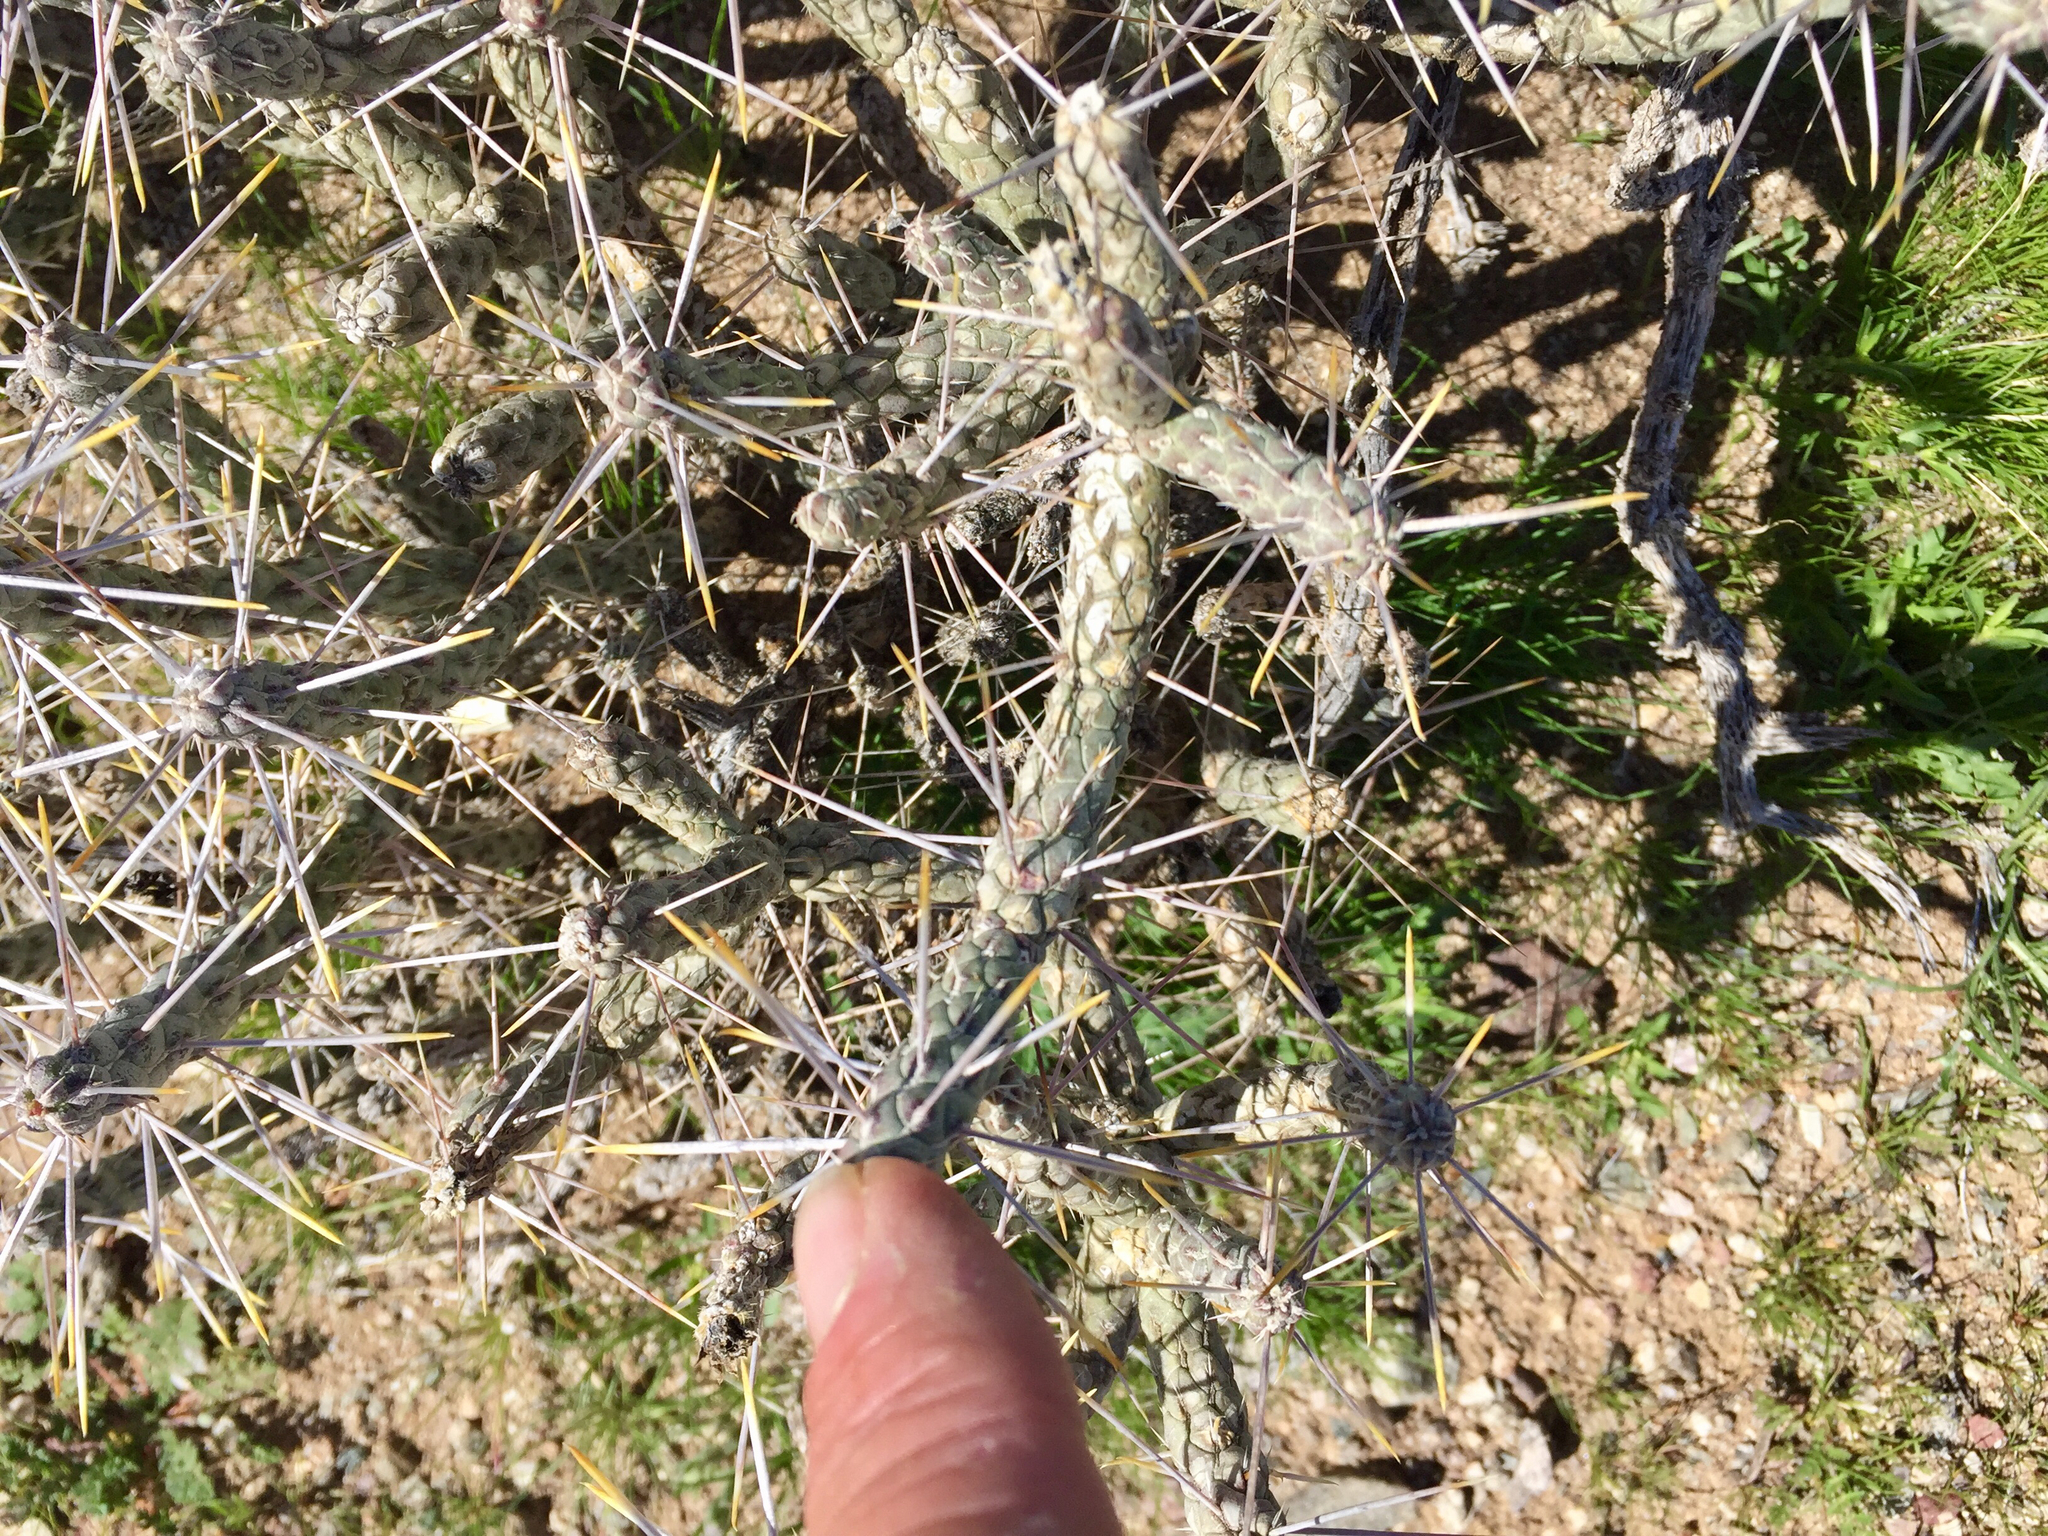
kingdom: Plantae
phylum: Tracheophyta
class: Magnoliopsida
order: Caryophyllales
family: Cactaceae
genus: Cylindropuntia
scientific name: Cylindropuntia ramosissima
